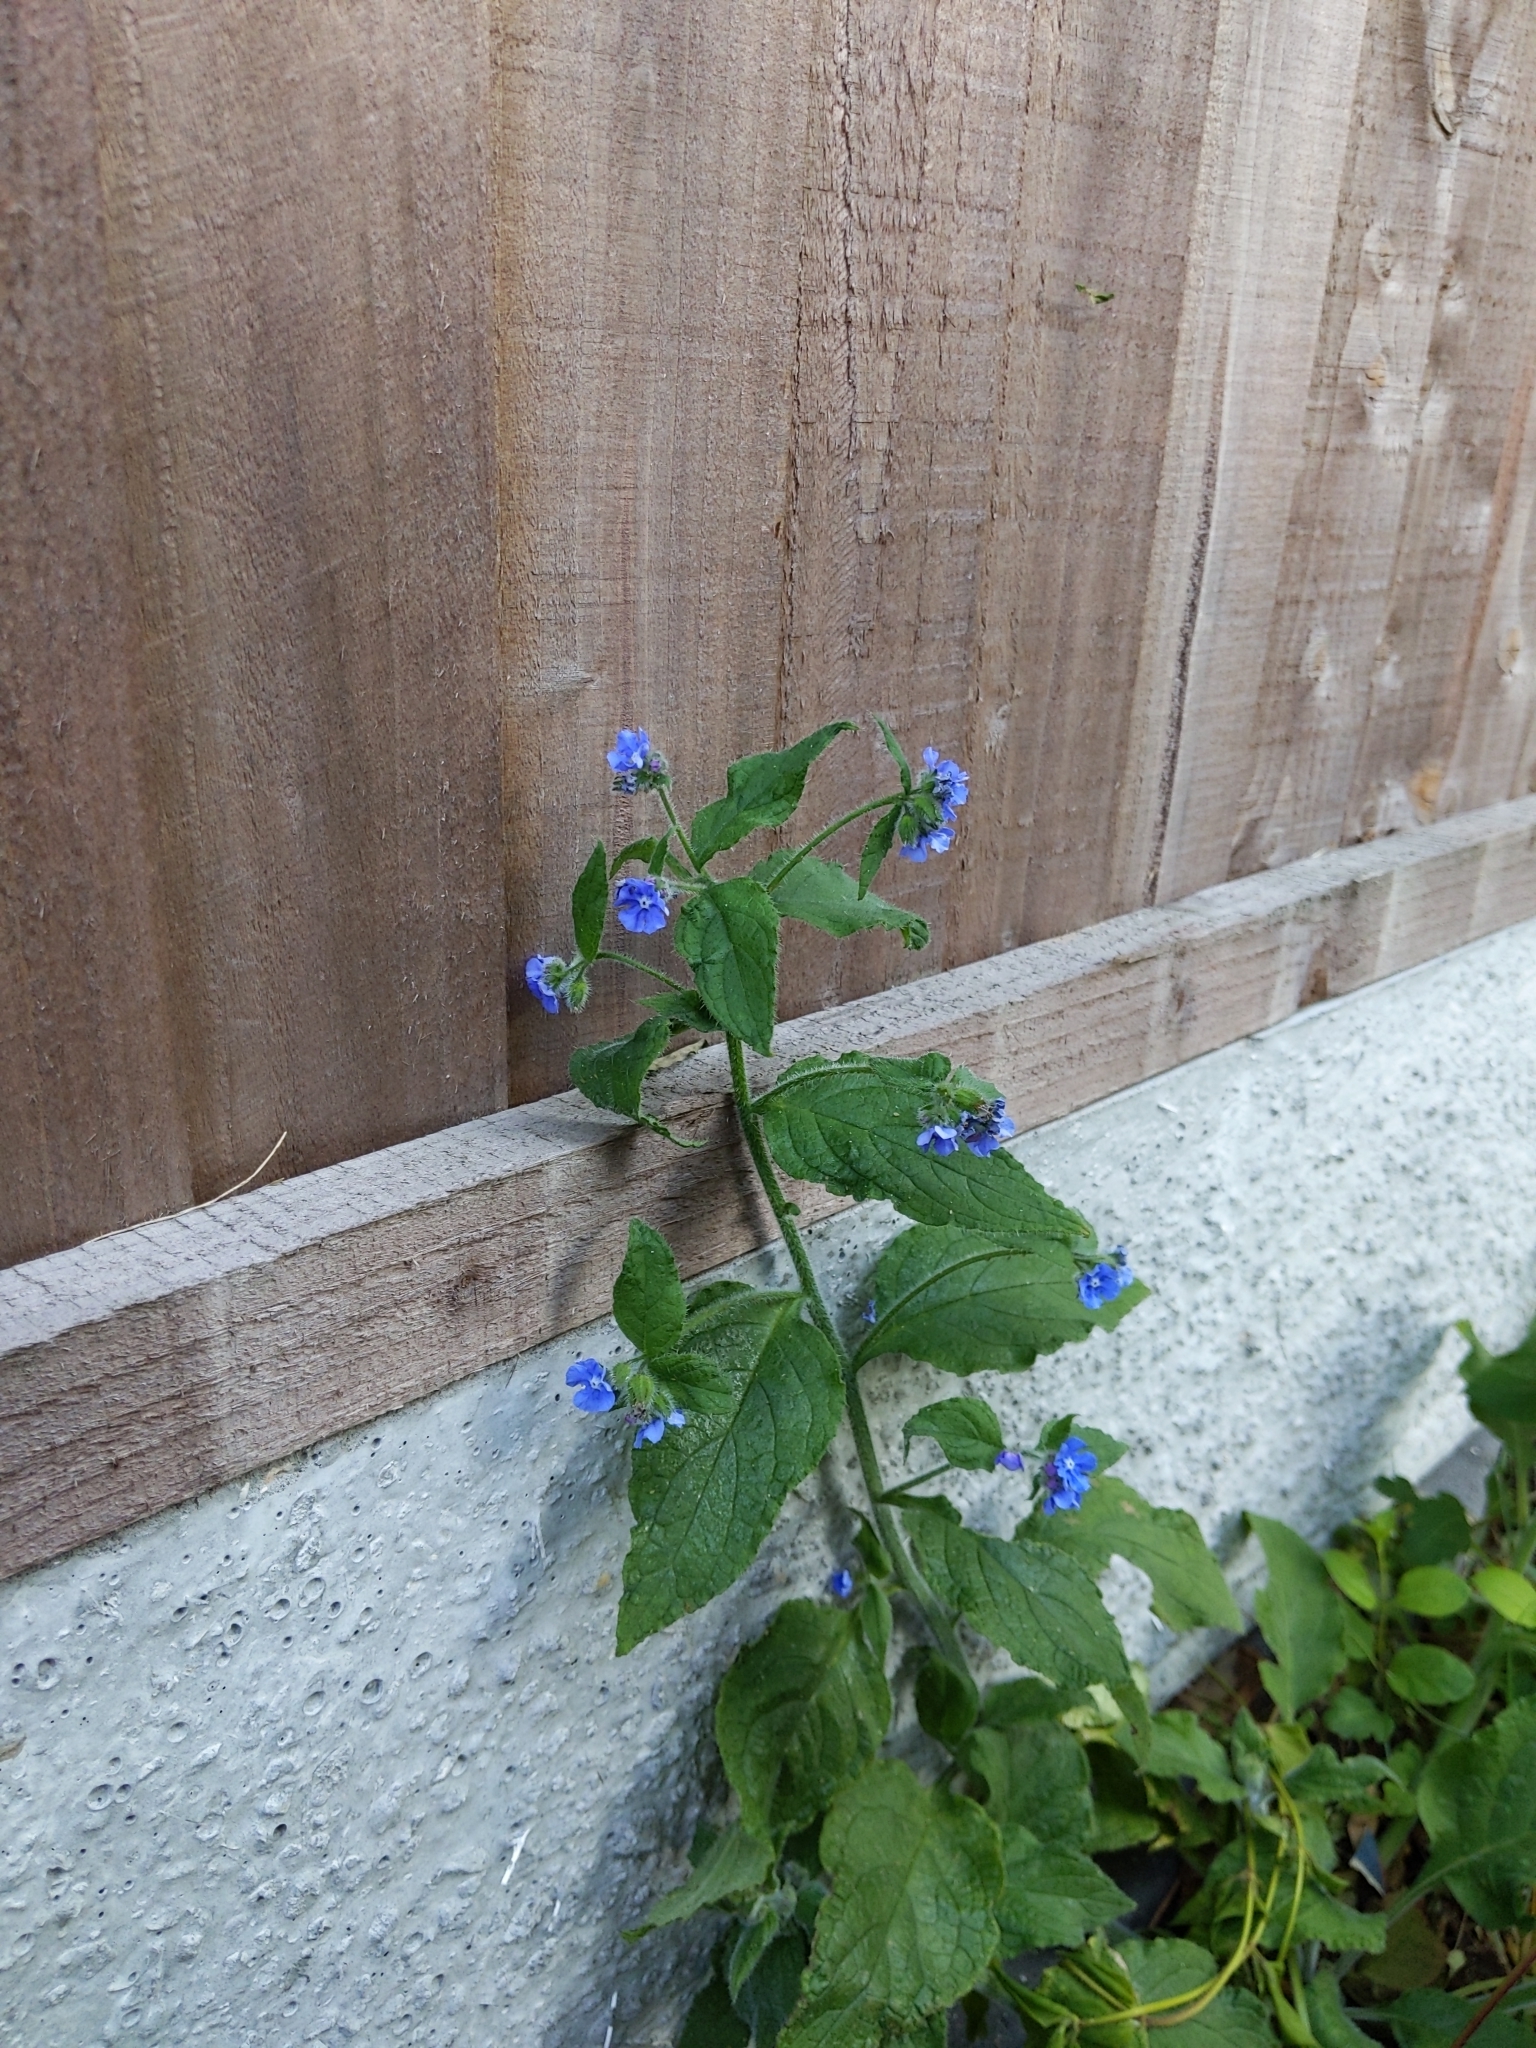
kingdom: Plantae
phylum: Tracheophyta
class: Magnoliopsida
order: Boraginales
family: Boraginaceae
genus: Pentaglottis
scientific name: Pentaglottis sempervirens
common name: Green alkanet
